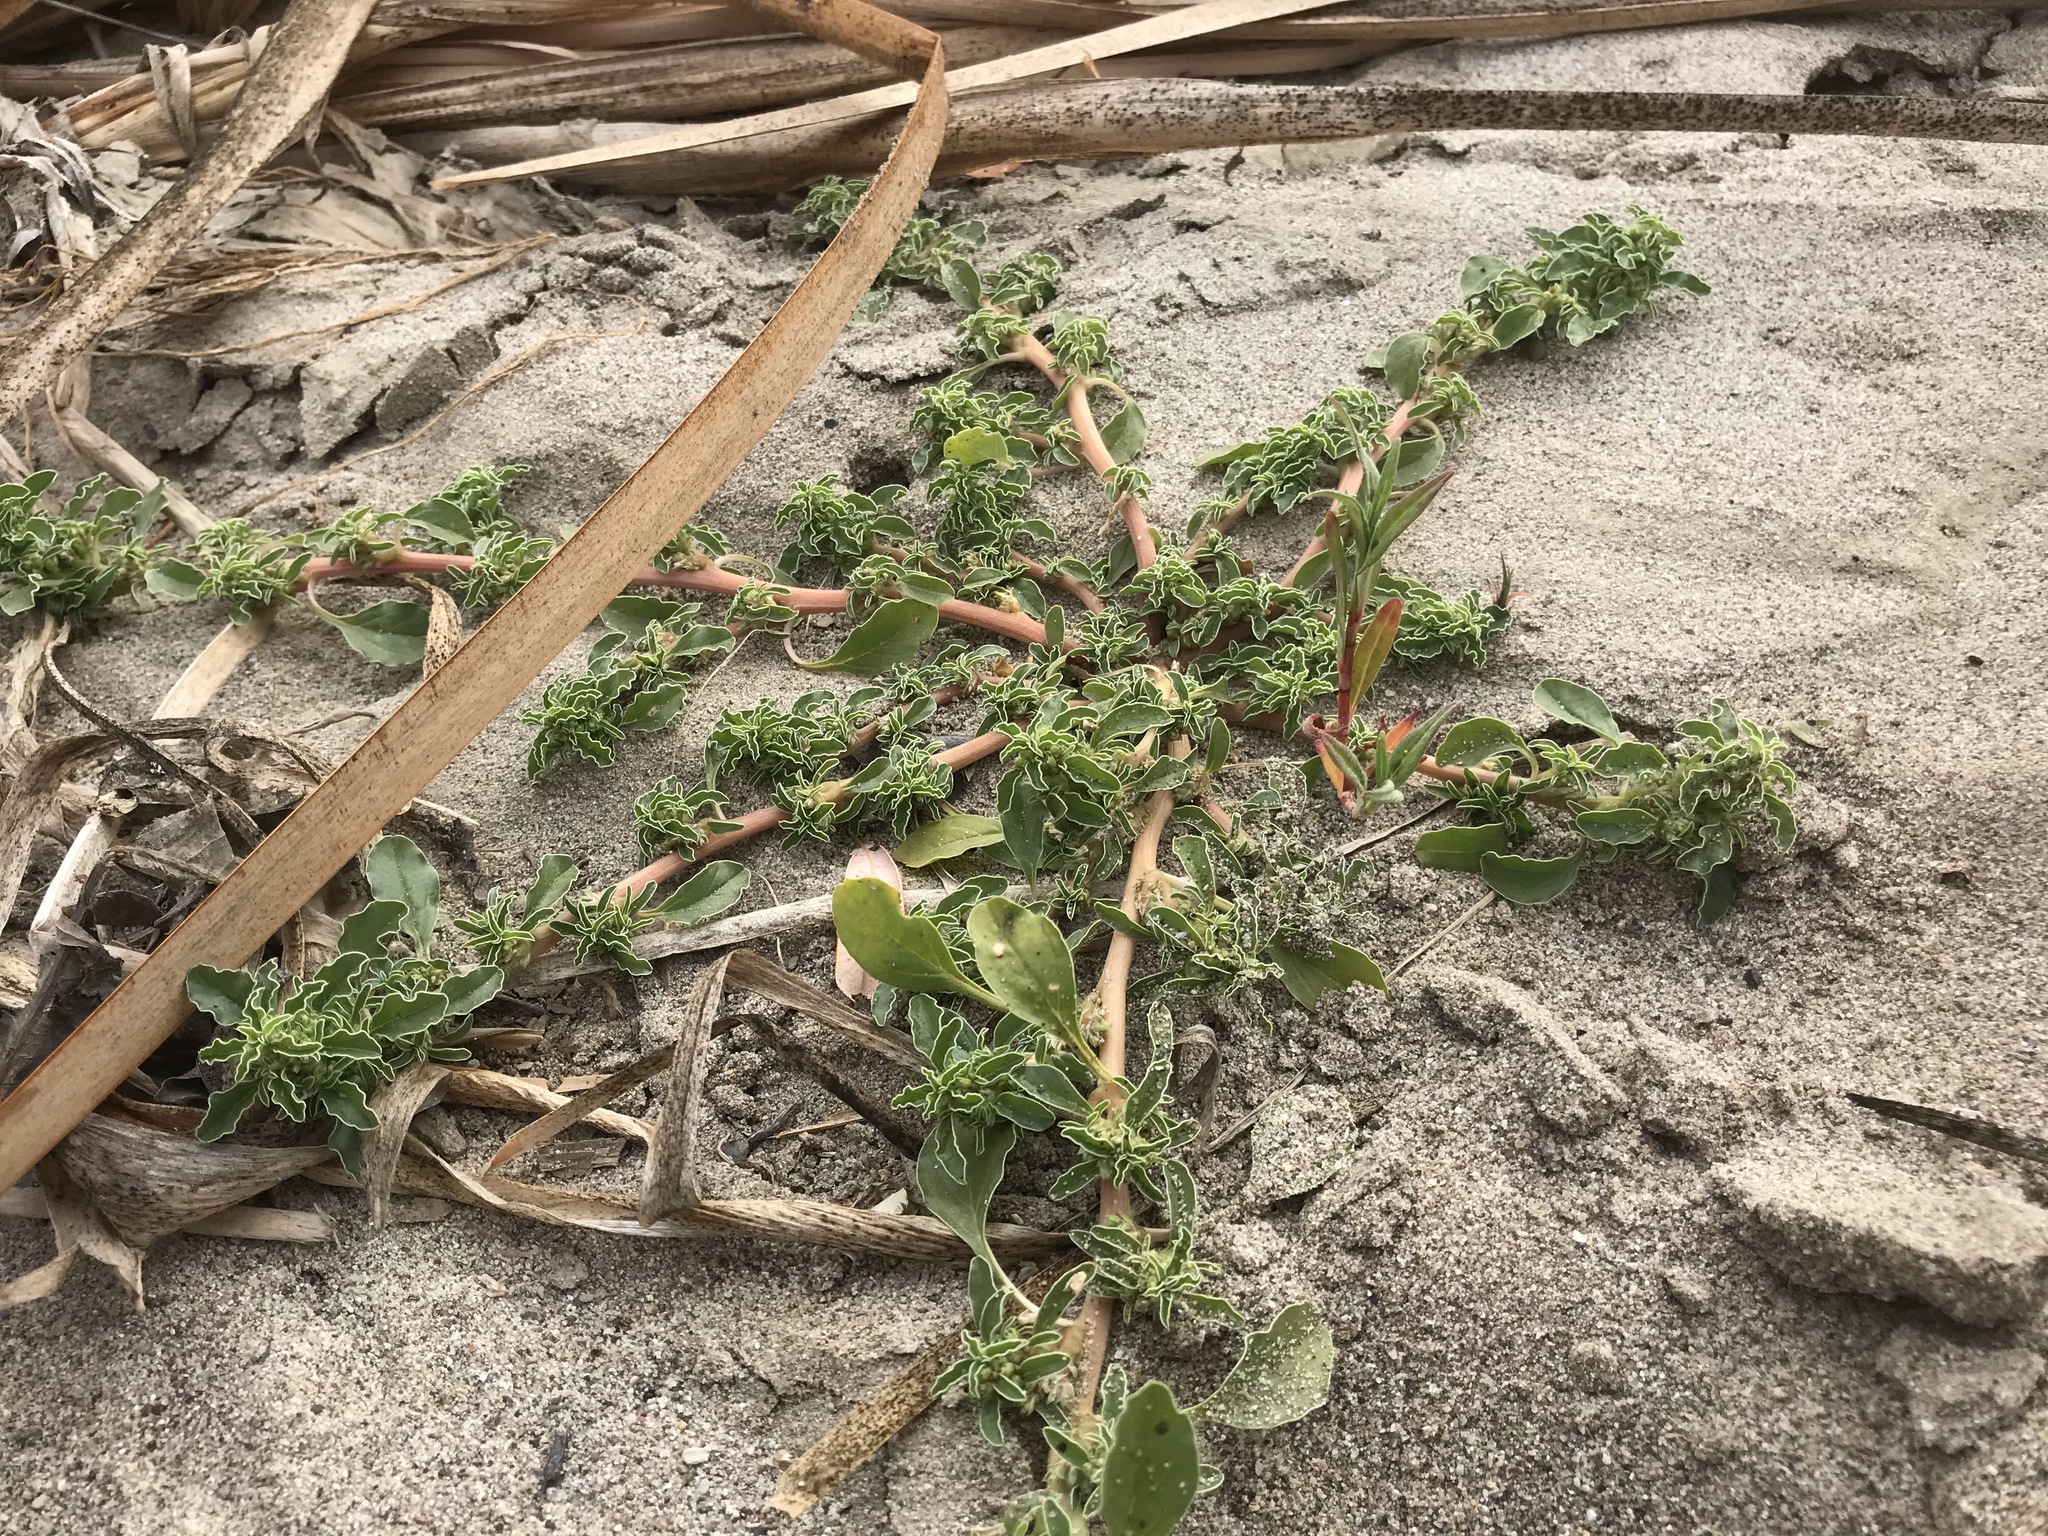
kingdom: Plantae
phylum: Tracheophyta
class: Magnoliopsida
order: Caryophyllales
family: Amaranthaceae
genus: Amaranthus
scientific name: Amaranthus blitoides
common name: Prostrate pigweed
